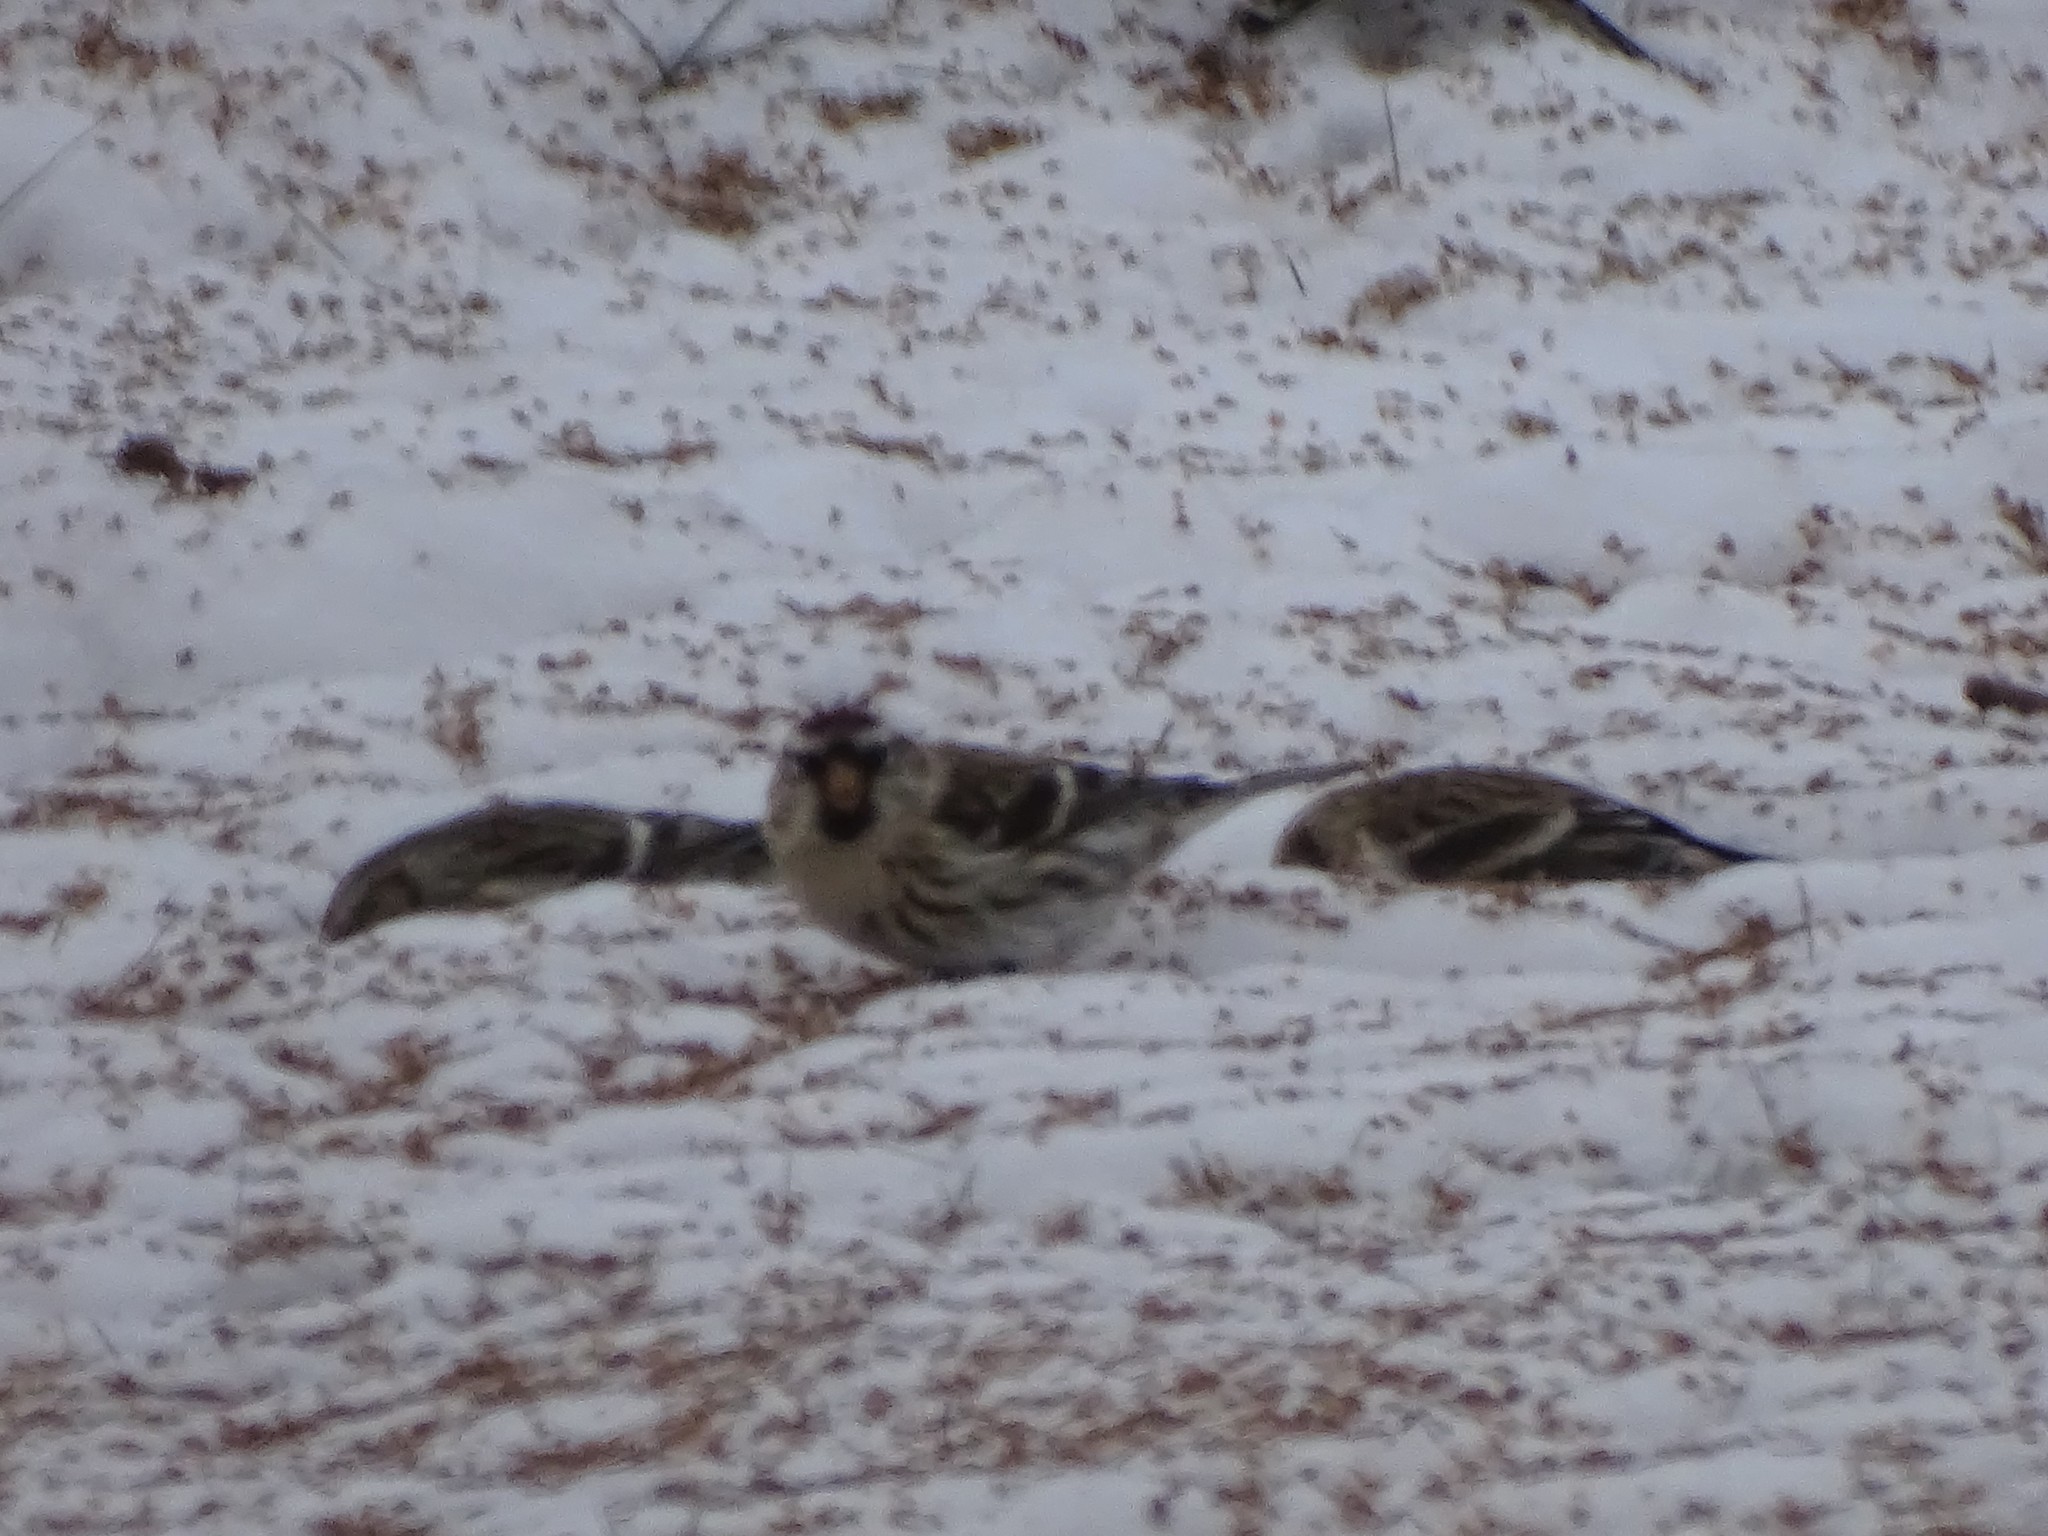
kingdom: Animalia
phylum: Chordata
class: Aves
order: Passeriformes
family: Fringillidae
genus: Acanthis
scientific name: Acanthis flammea
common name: Common redpoll
